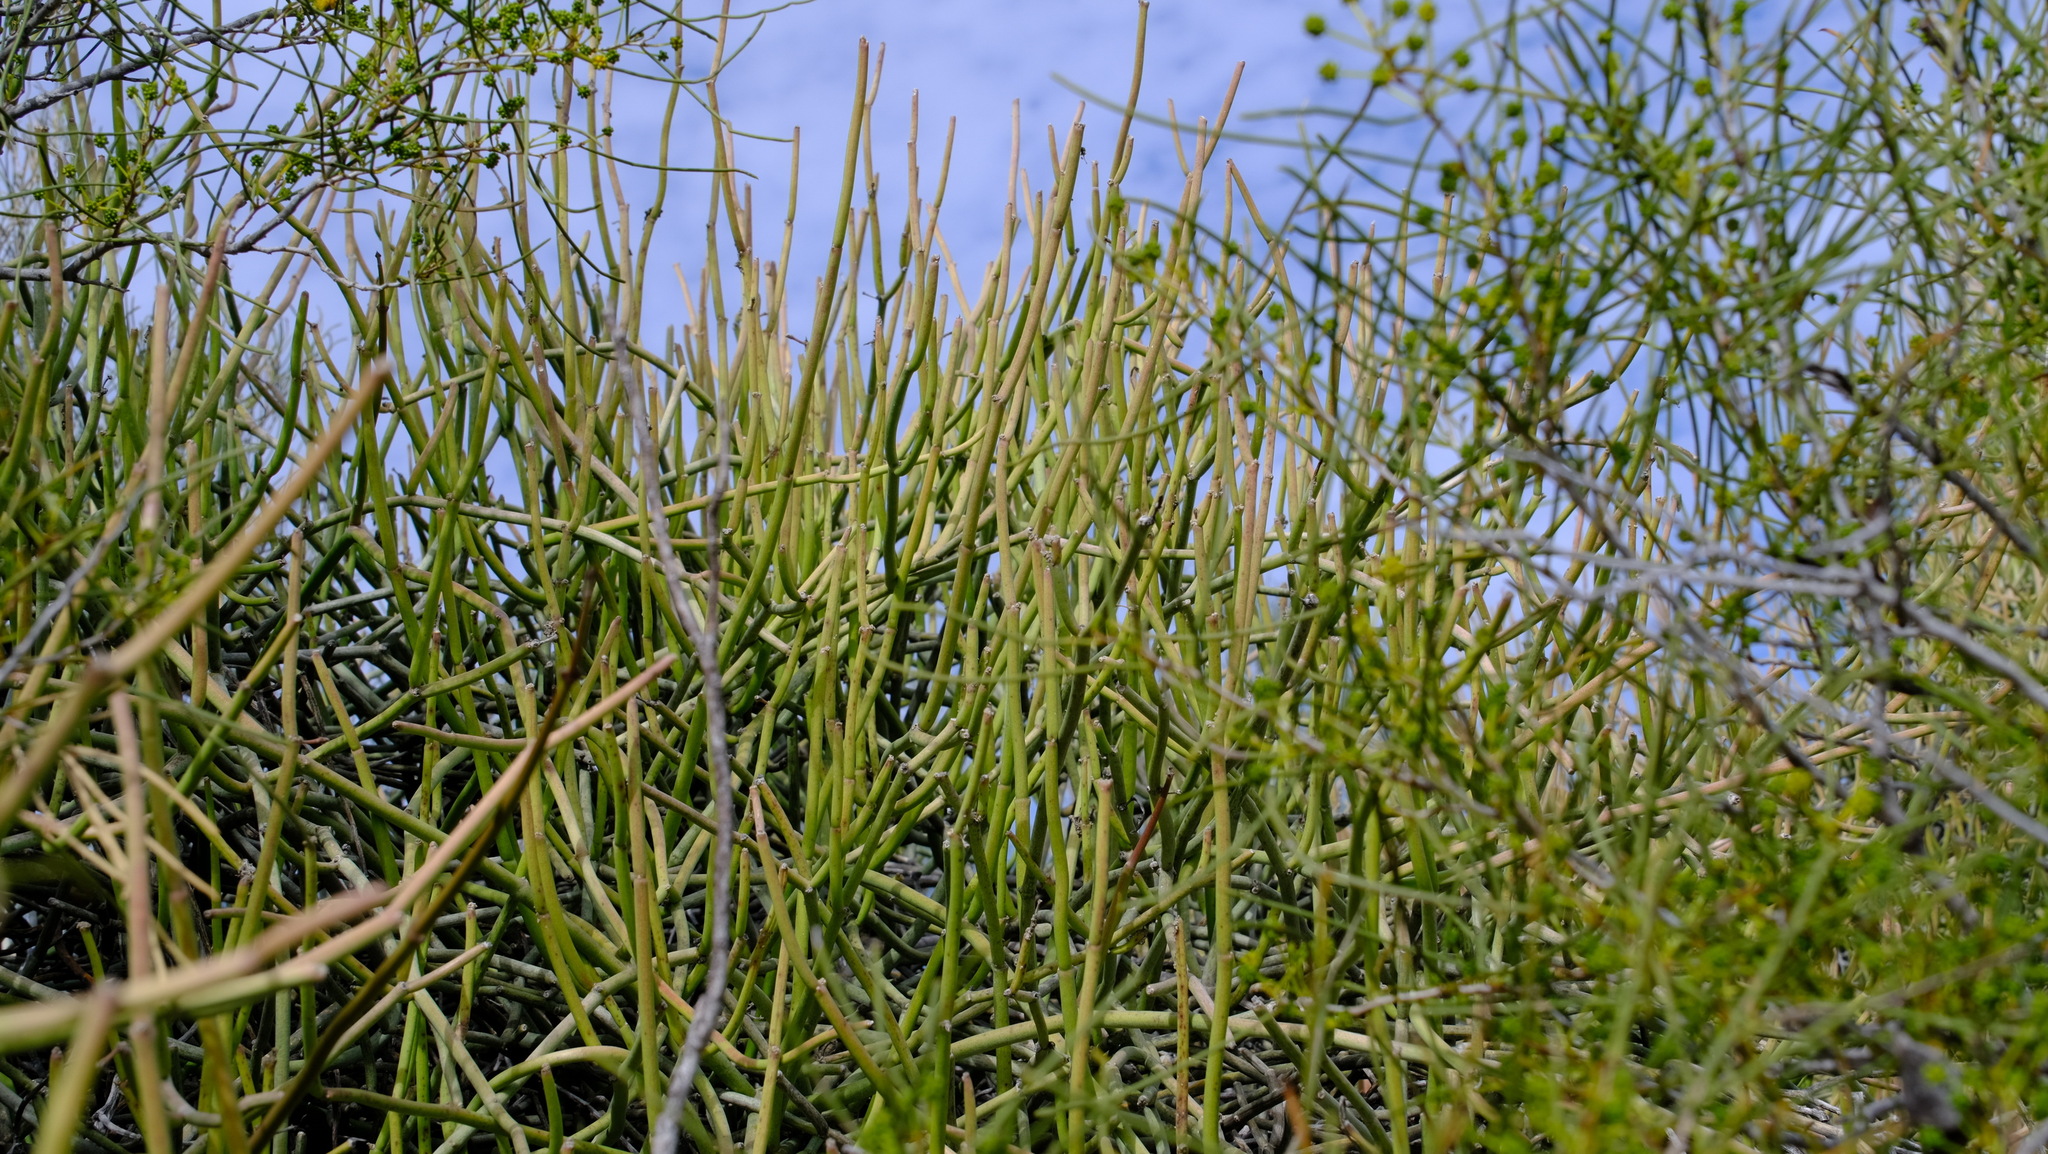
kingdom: Plantae
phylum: Tracheophyta
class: Magnoliopsida
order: Gentianales
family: Apocynaceae
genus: Cynanchum
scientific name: Cynanchum viminale
